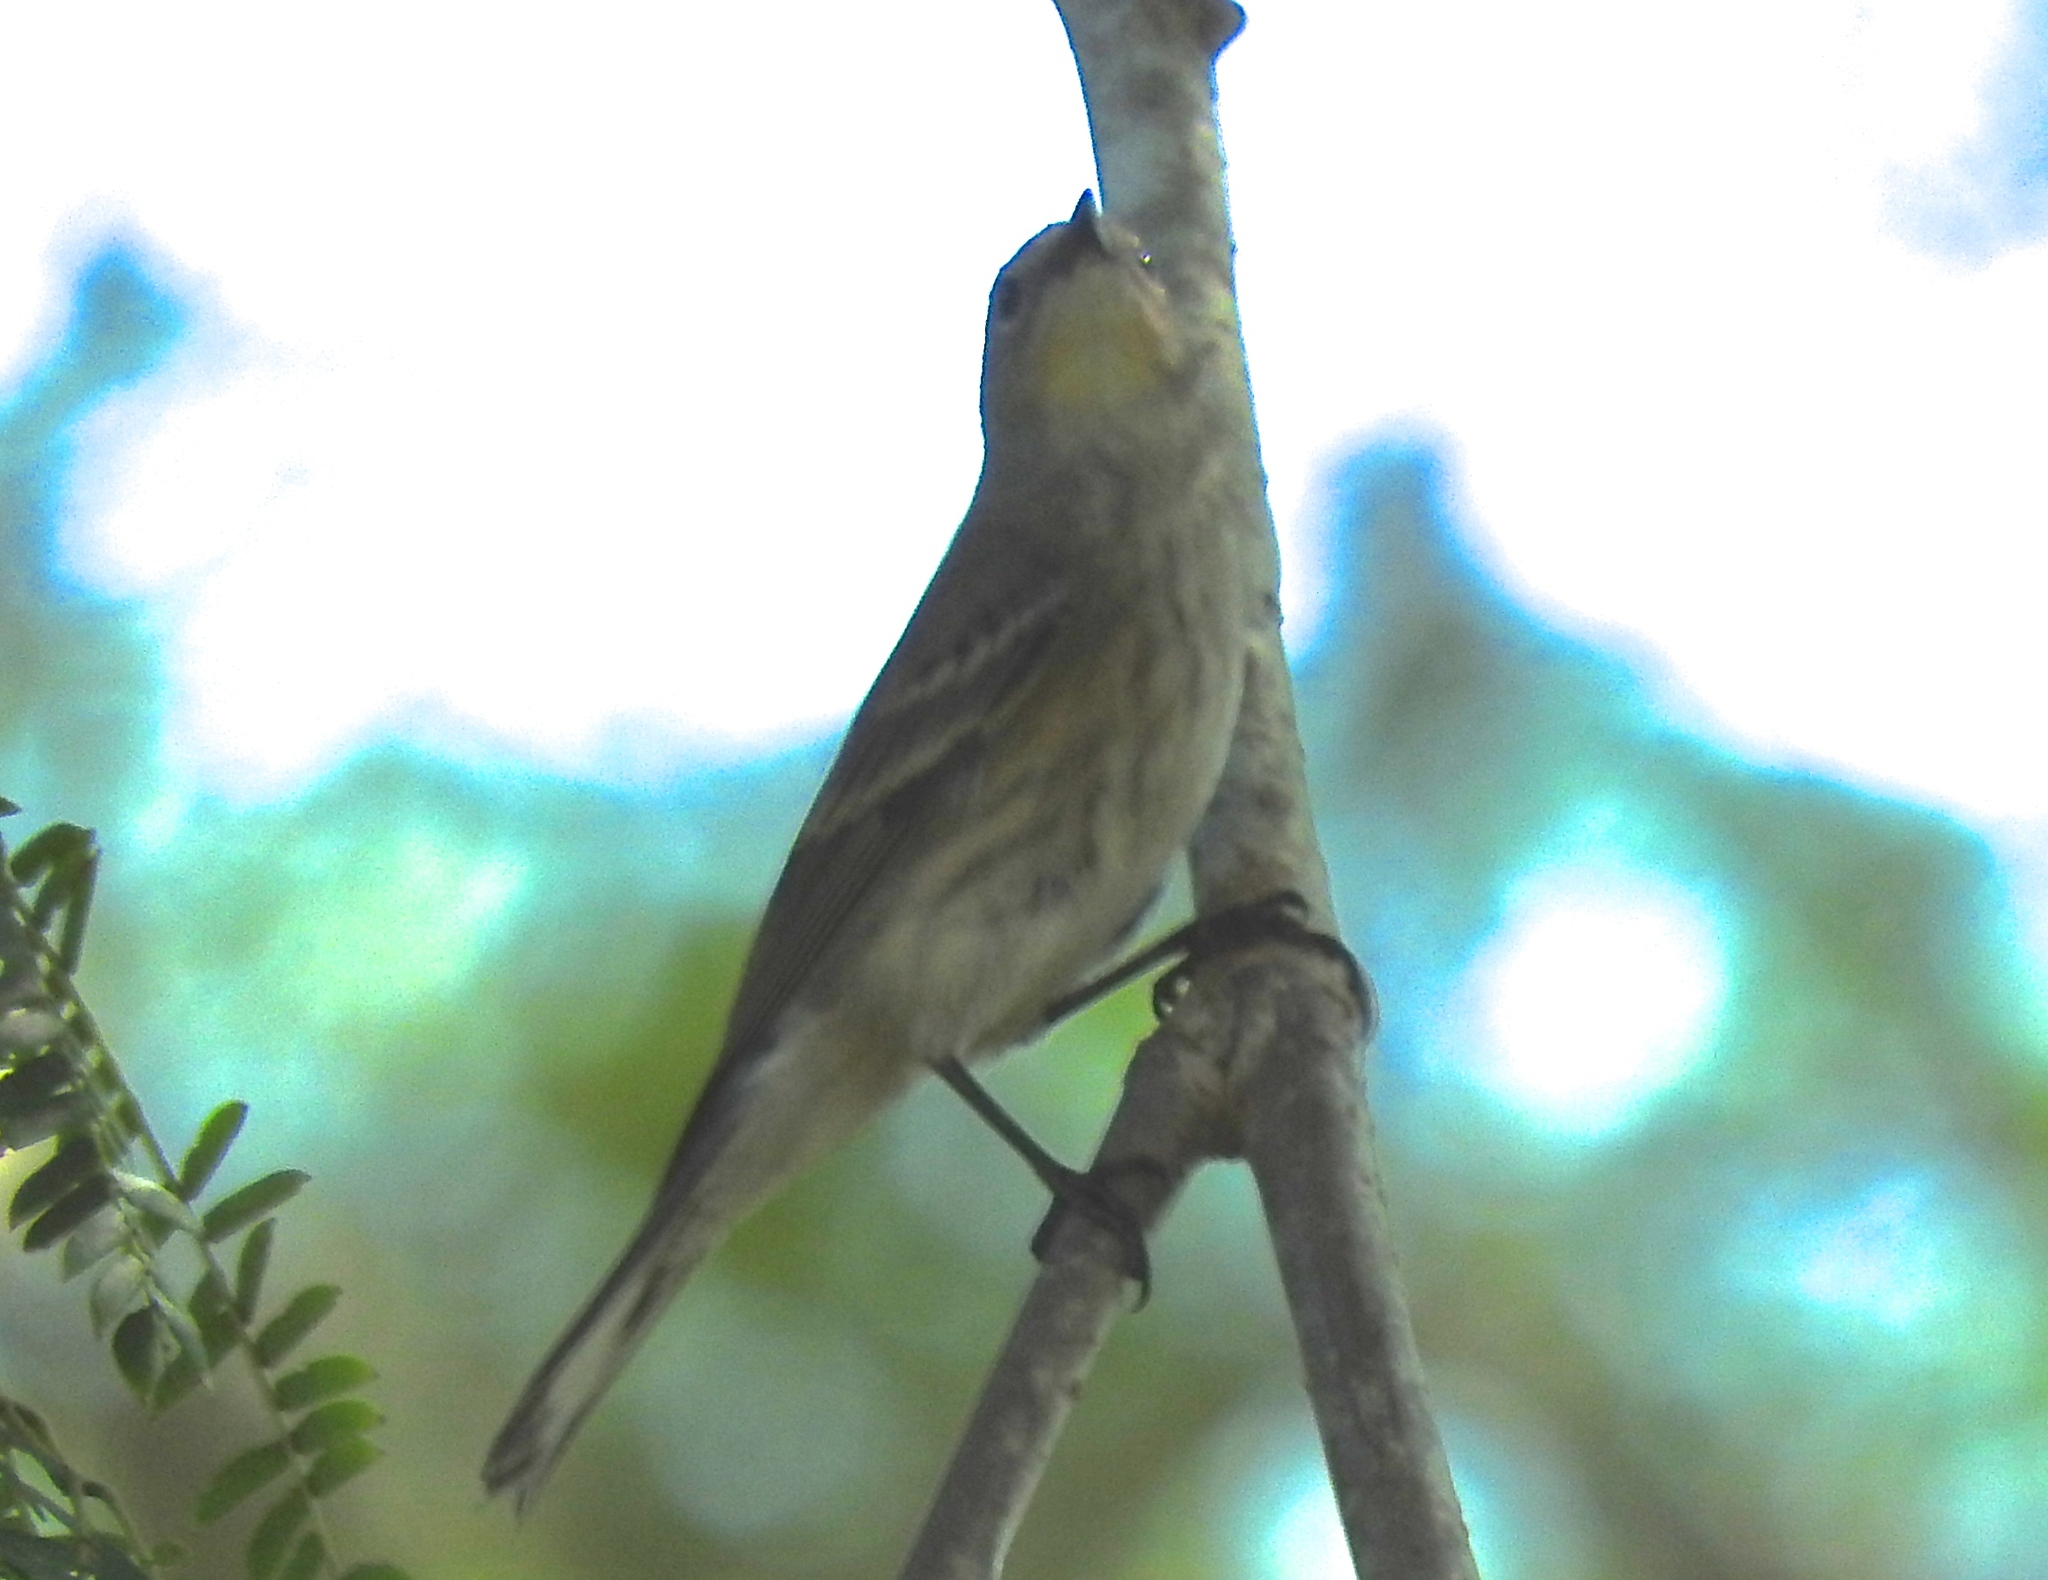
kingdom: Animalia
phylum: Chordata
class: Aves
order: Passeriformes
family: Parulidae
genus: Setophaga
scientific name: Setophaga coronata
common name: Myrtle warbler
